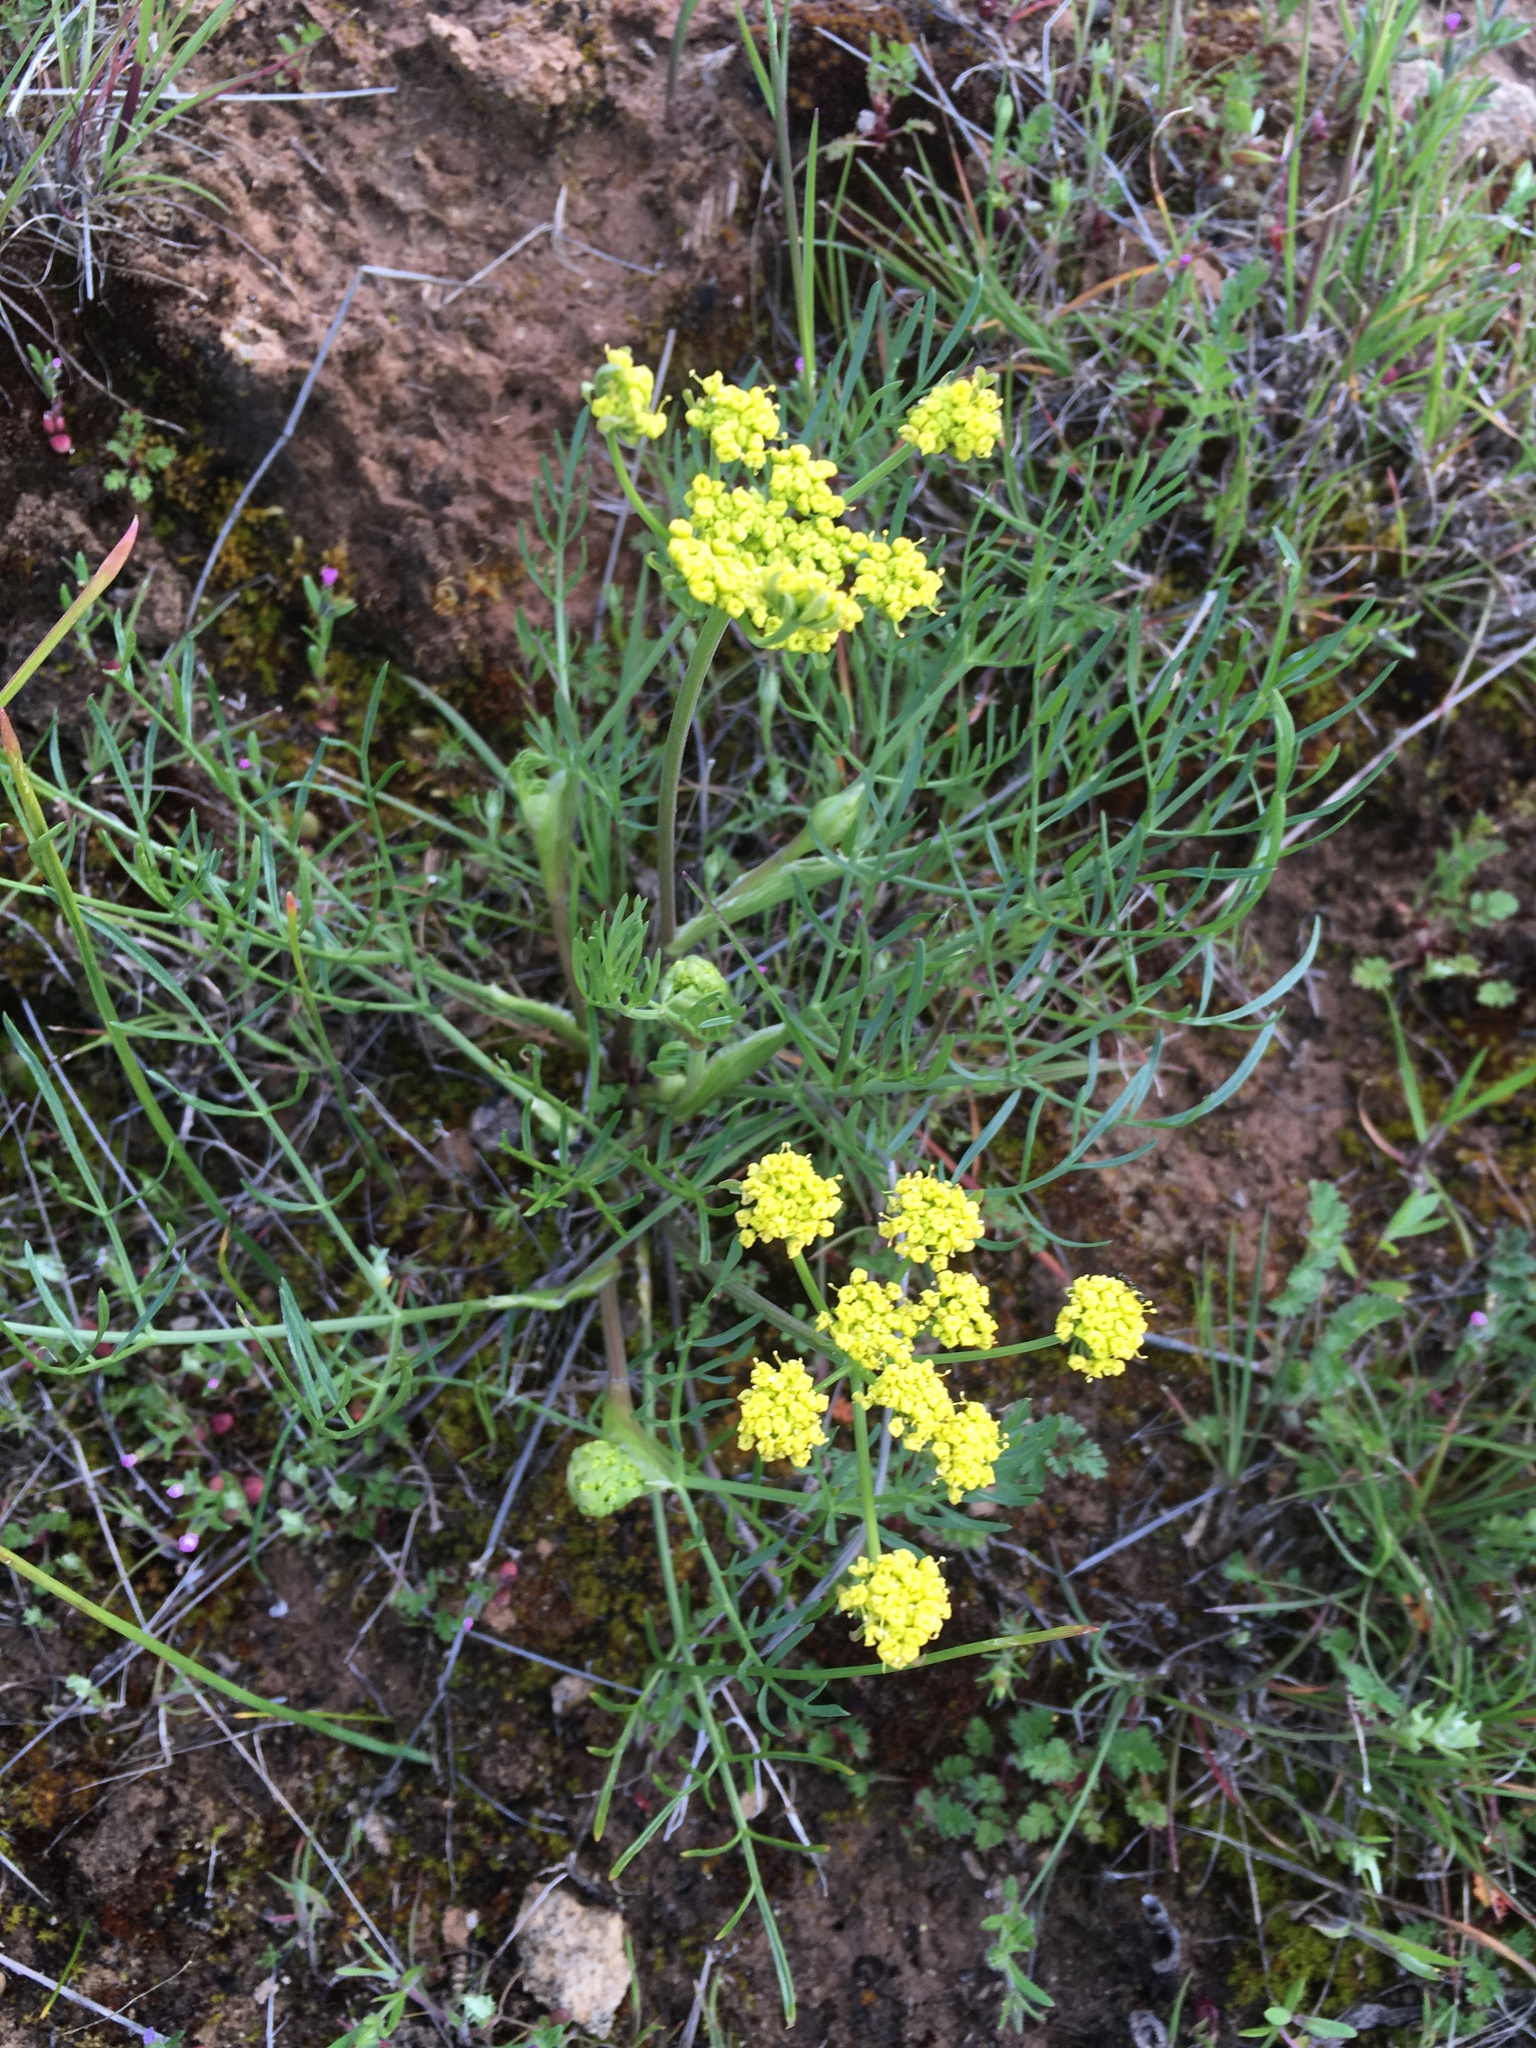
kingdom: Plantae
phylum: Tracheophyta
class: Magnoliopsida
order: Apiales
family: Apiaceae
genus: Lomatium
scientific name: Lomatium utriculatum
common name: Fine-leaf desert-parsley
